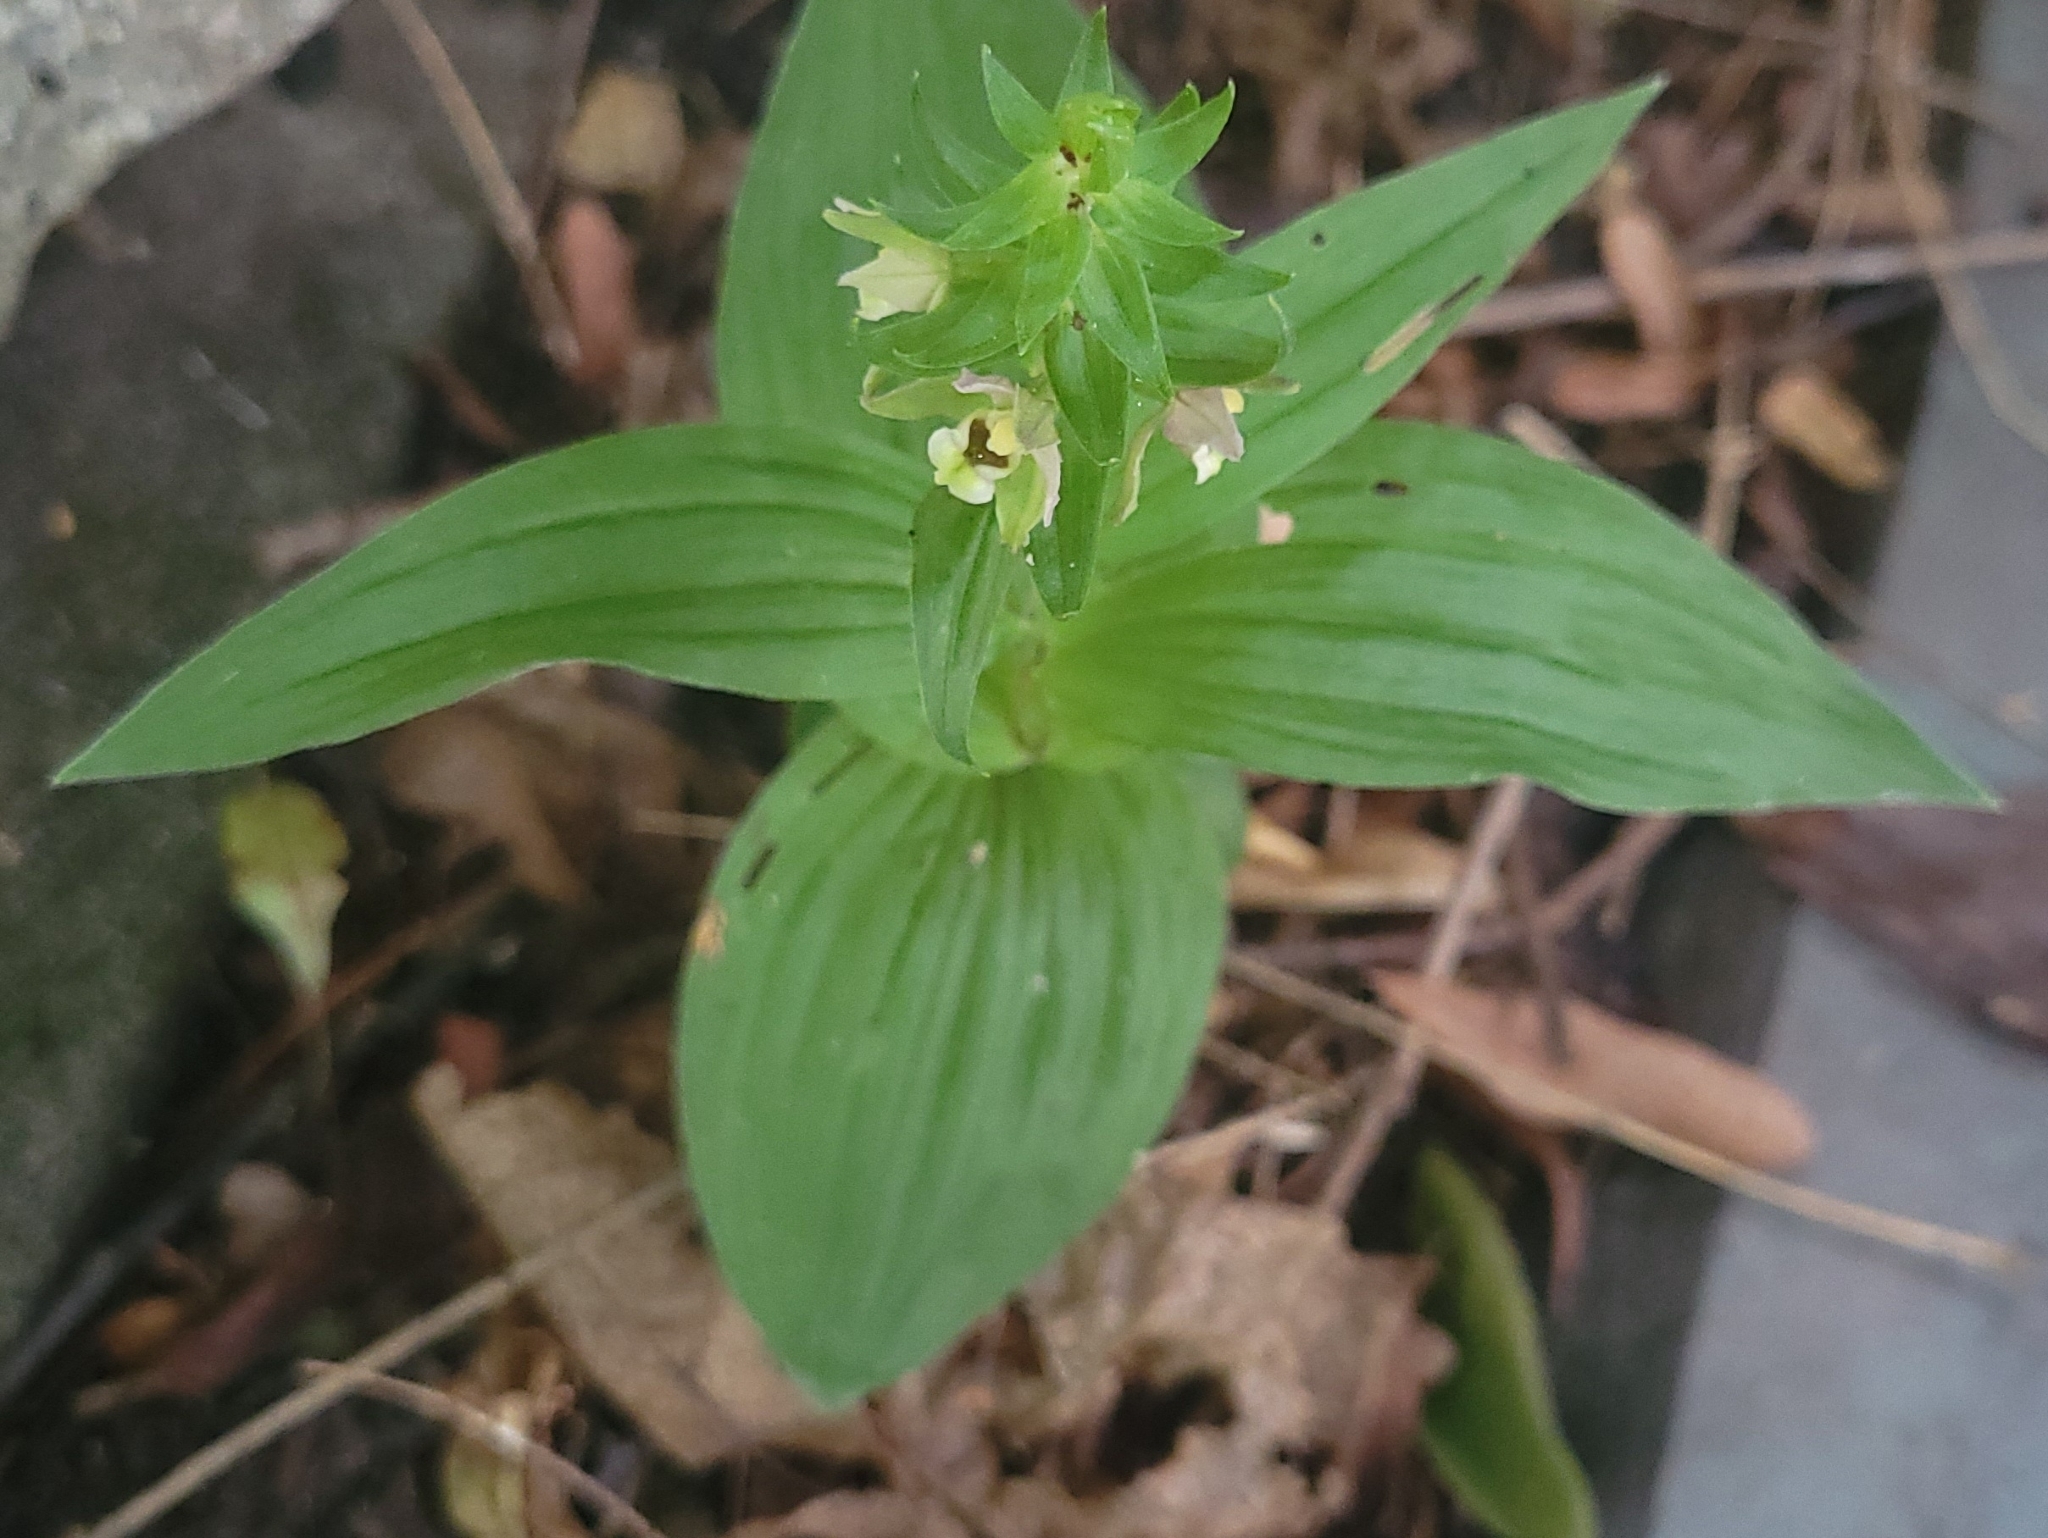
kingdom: Plantae
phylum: Tracheophyta
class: Liliopsida
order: Asparagales
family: Orchidaceae
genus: Epipactis
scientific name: Epipactis helleborine
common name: Broad-leaved helleborine
